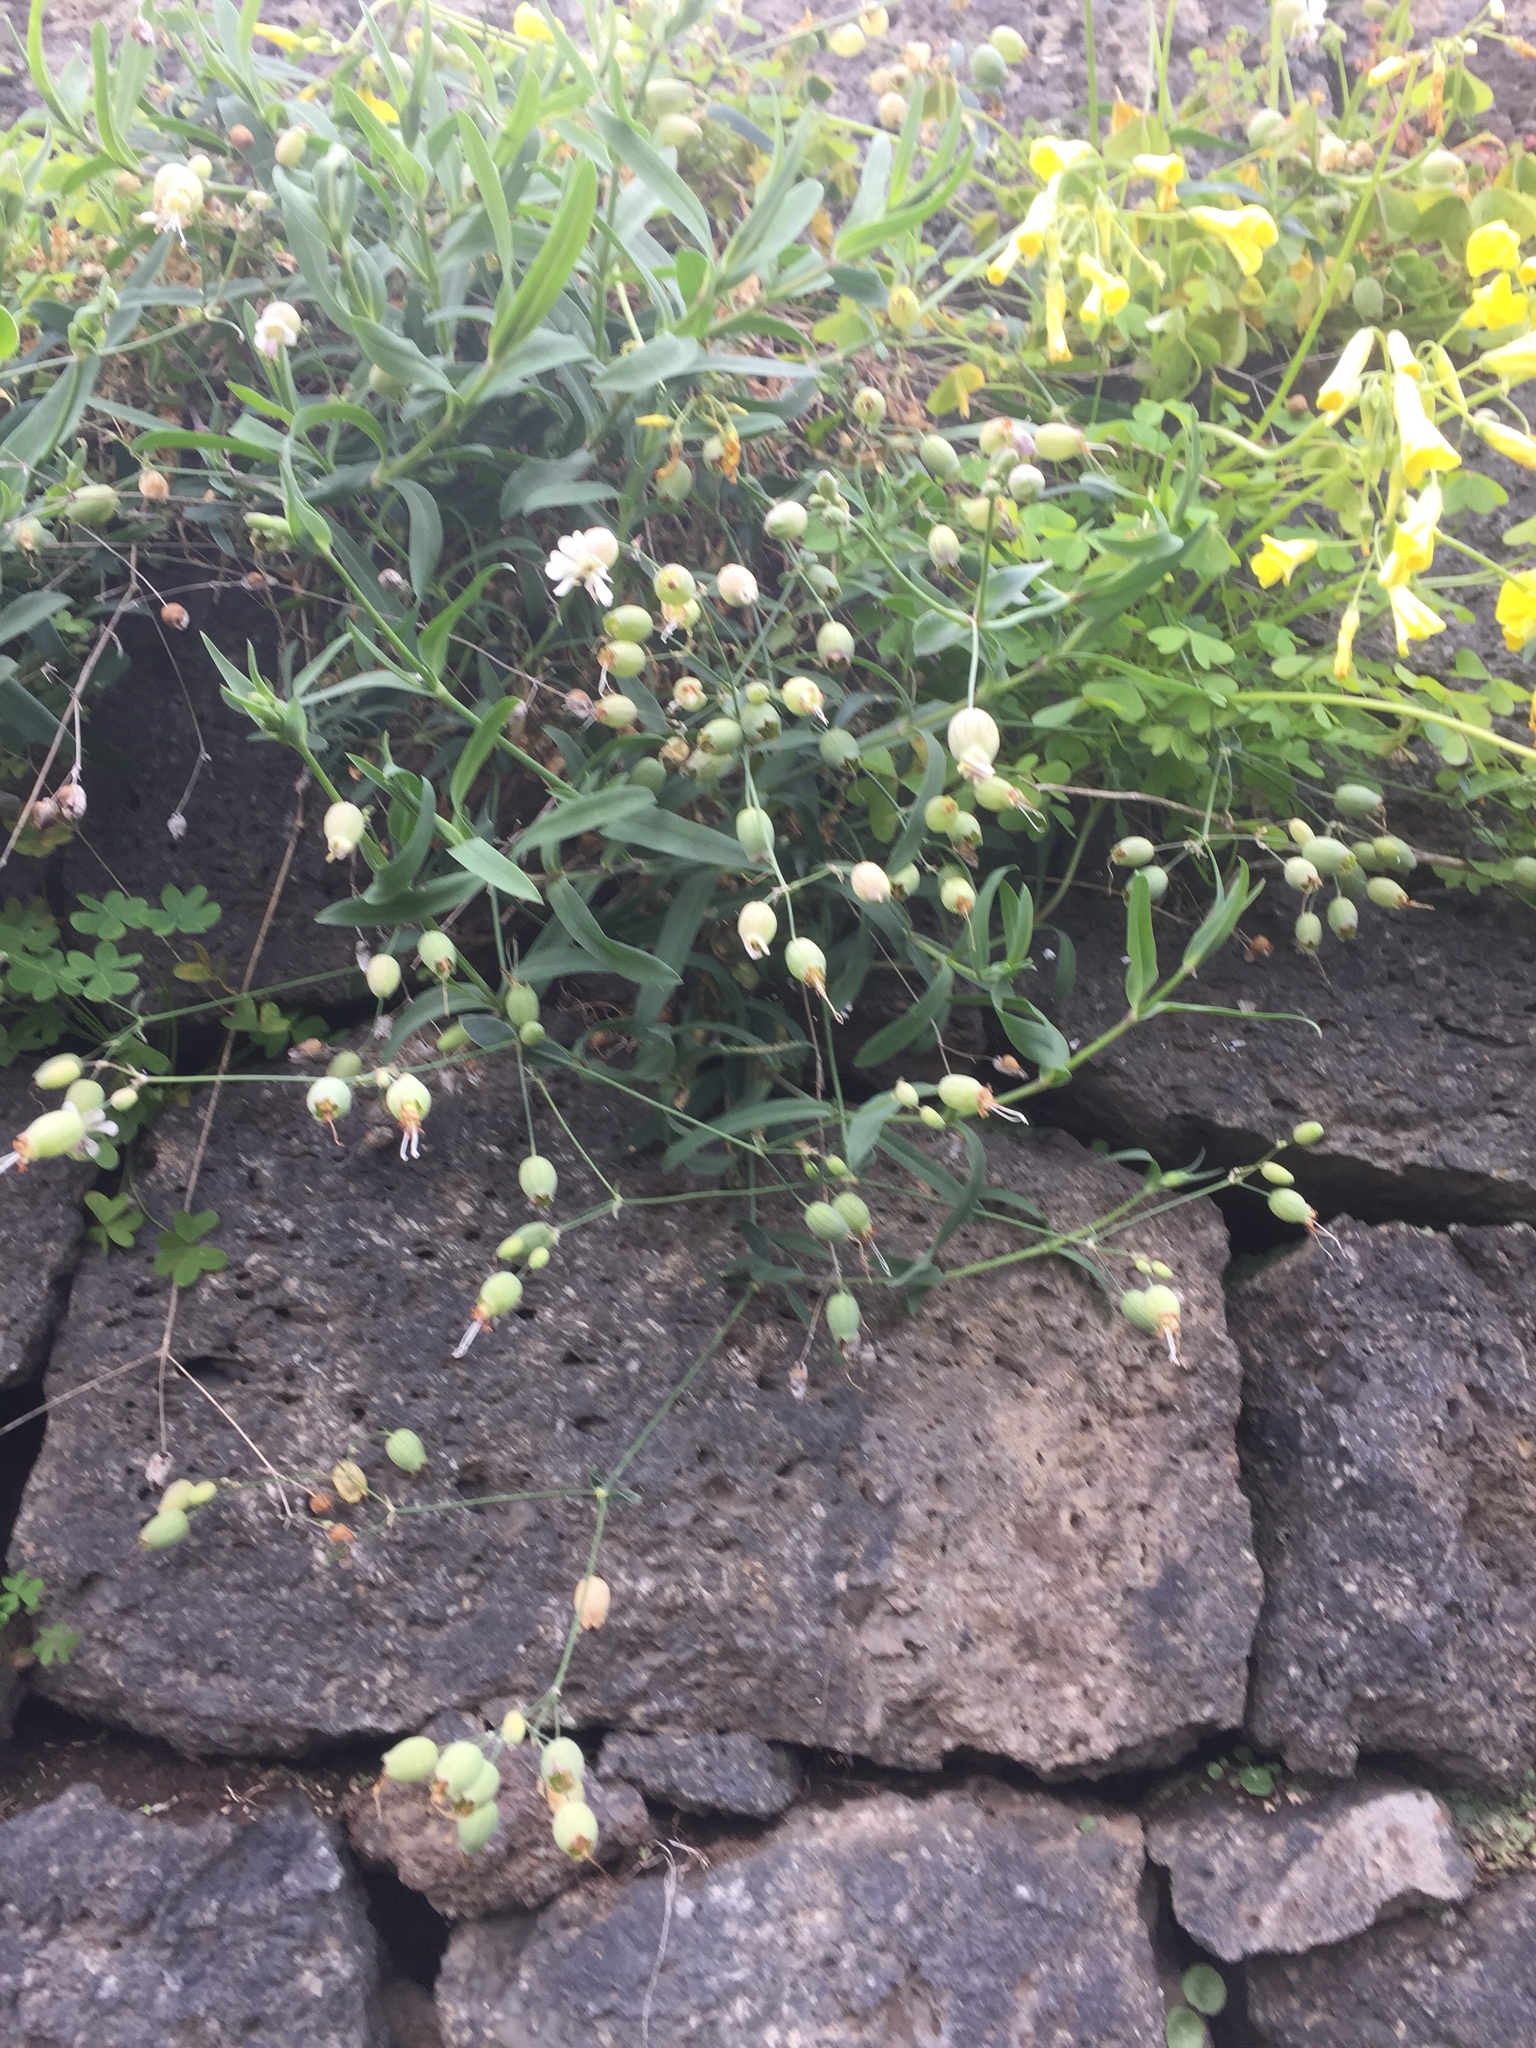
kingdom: Plantae
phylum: Tracheophyta
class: Magnoliopsida
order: Caryophyllales
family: Caryophyllaceae
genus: Silene
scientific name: Silene vulgaris
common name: Bladder campion
